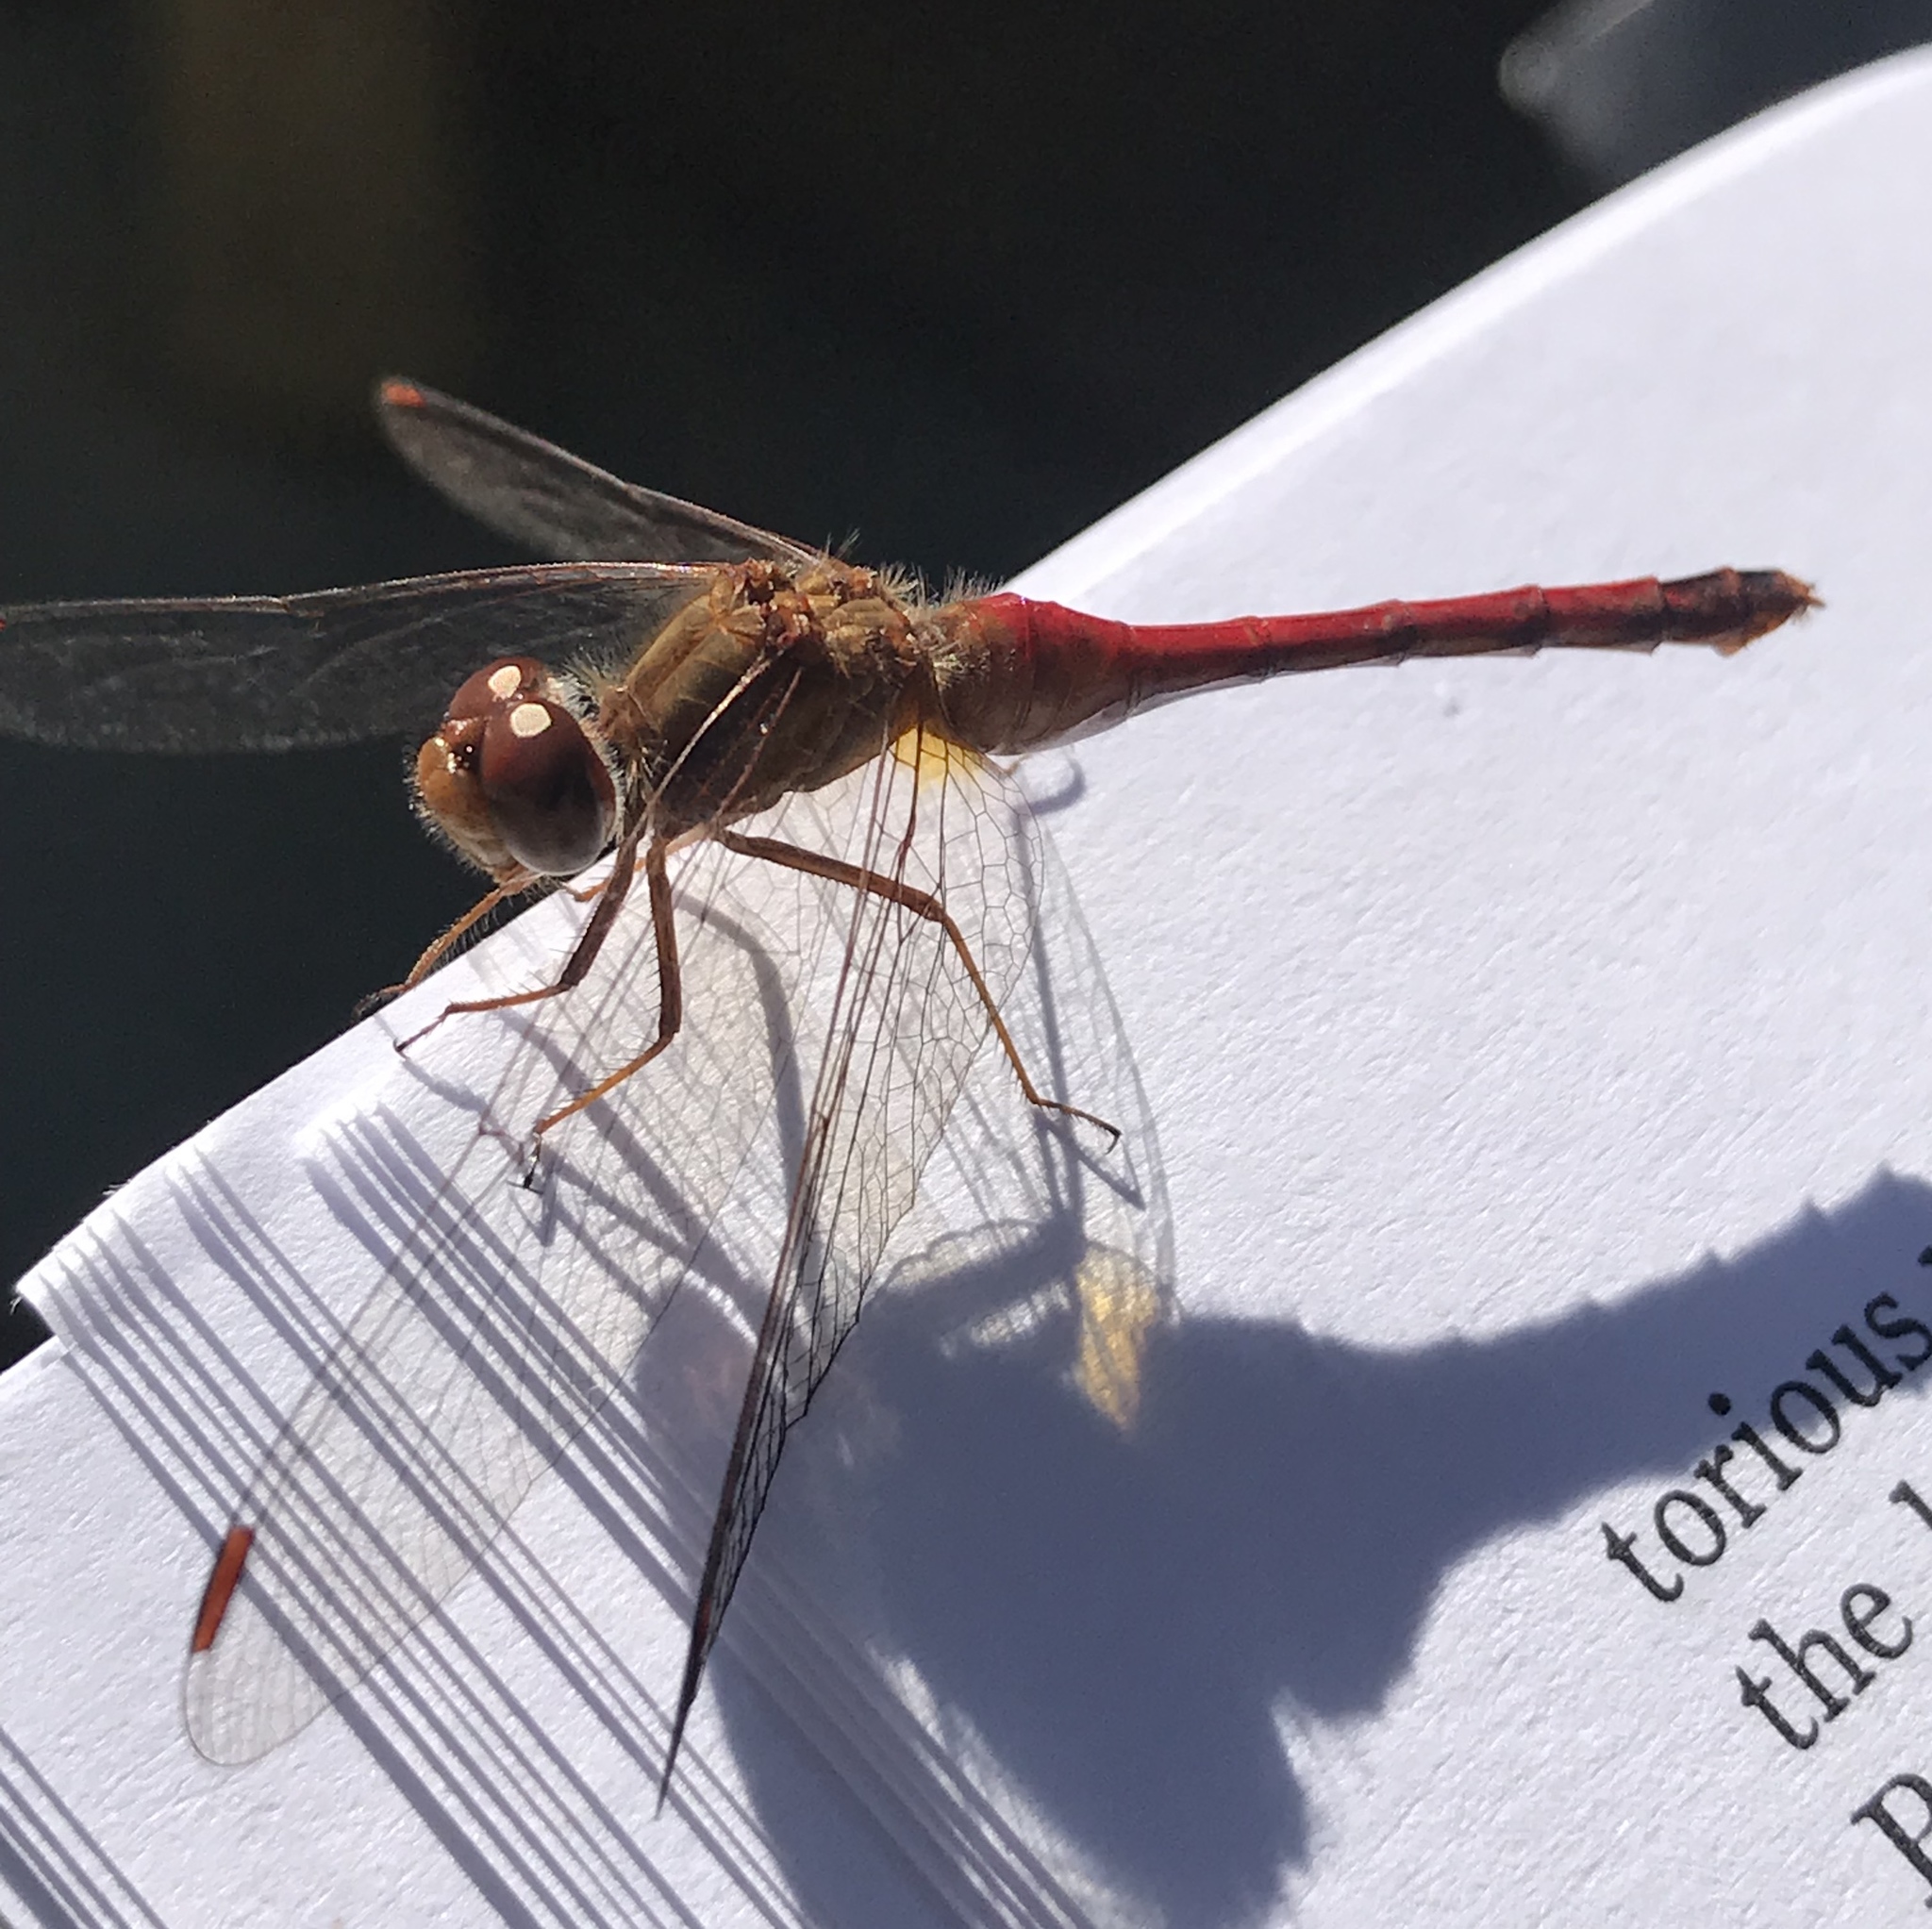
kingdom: Animalia
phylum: Arthropoda
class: Insecta
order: Odonata
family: Libellulidae
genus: Sympetrum
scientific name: Sympetrum vicinum
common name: Autumn meadowhawk
